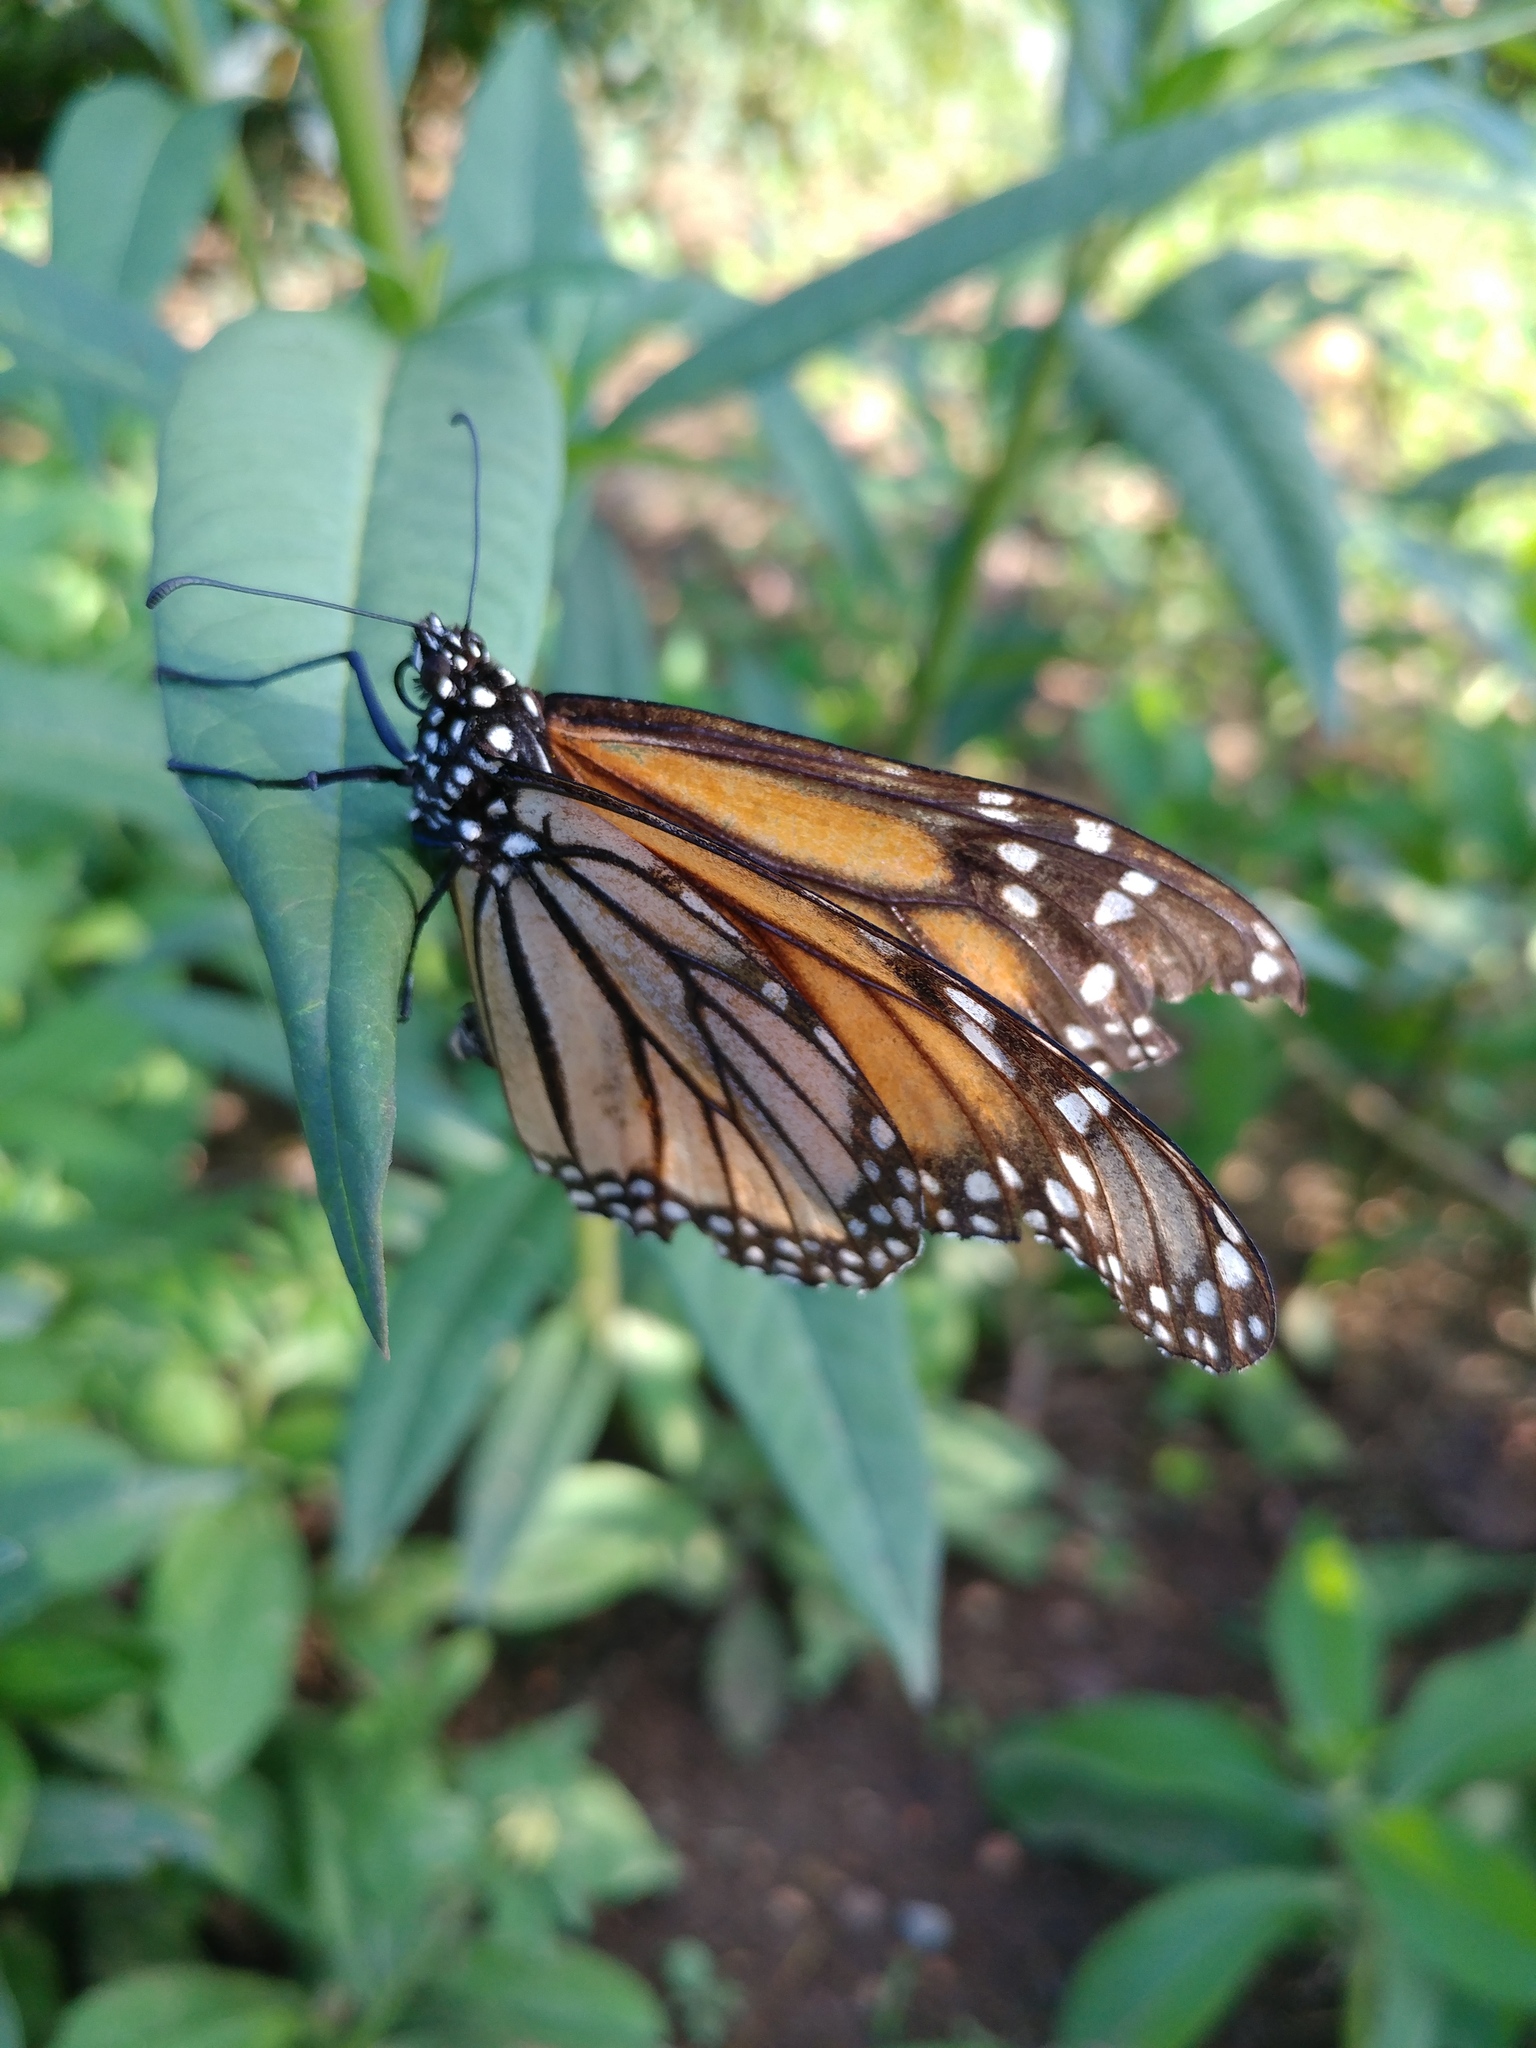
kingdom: Animalia
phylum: Arthropoda
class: Insecta
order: Lepidoptera
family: Nymphalidae
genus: Danaus
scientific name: Danaus plexippus
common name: Monarch
